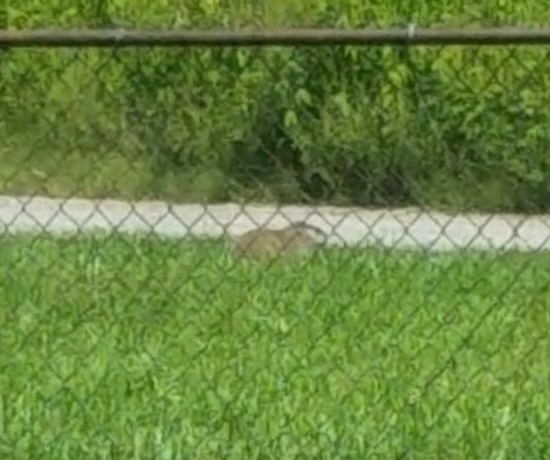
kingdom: Animalia
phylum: Chordata
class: Mammalia
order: Rodentia
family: Sciuridae
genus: Marmota
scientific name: Marmota monax
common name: Groundhog
